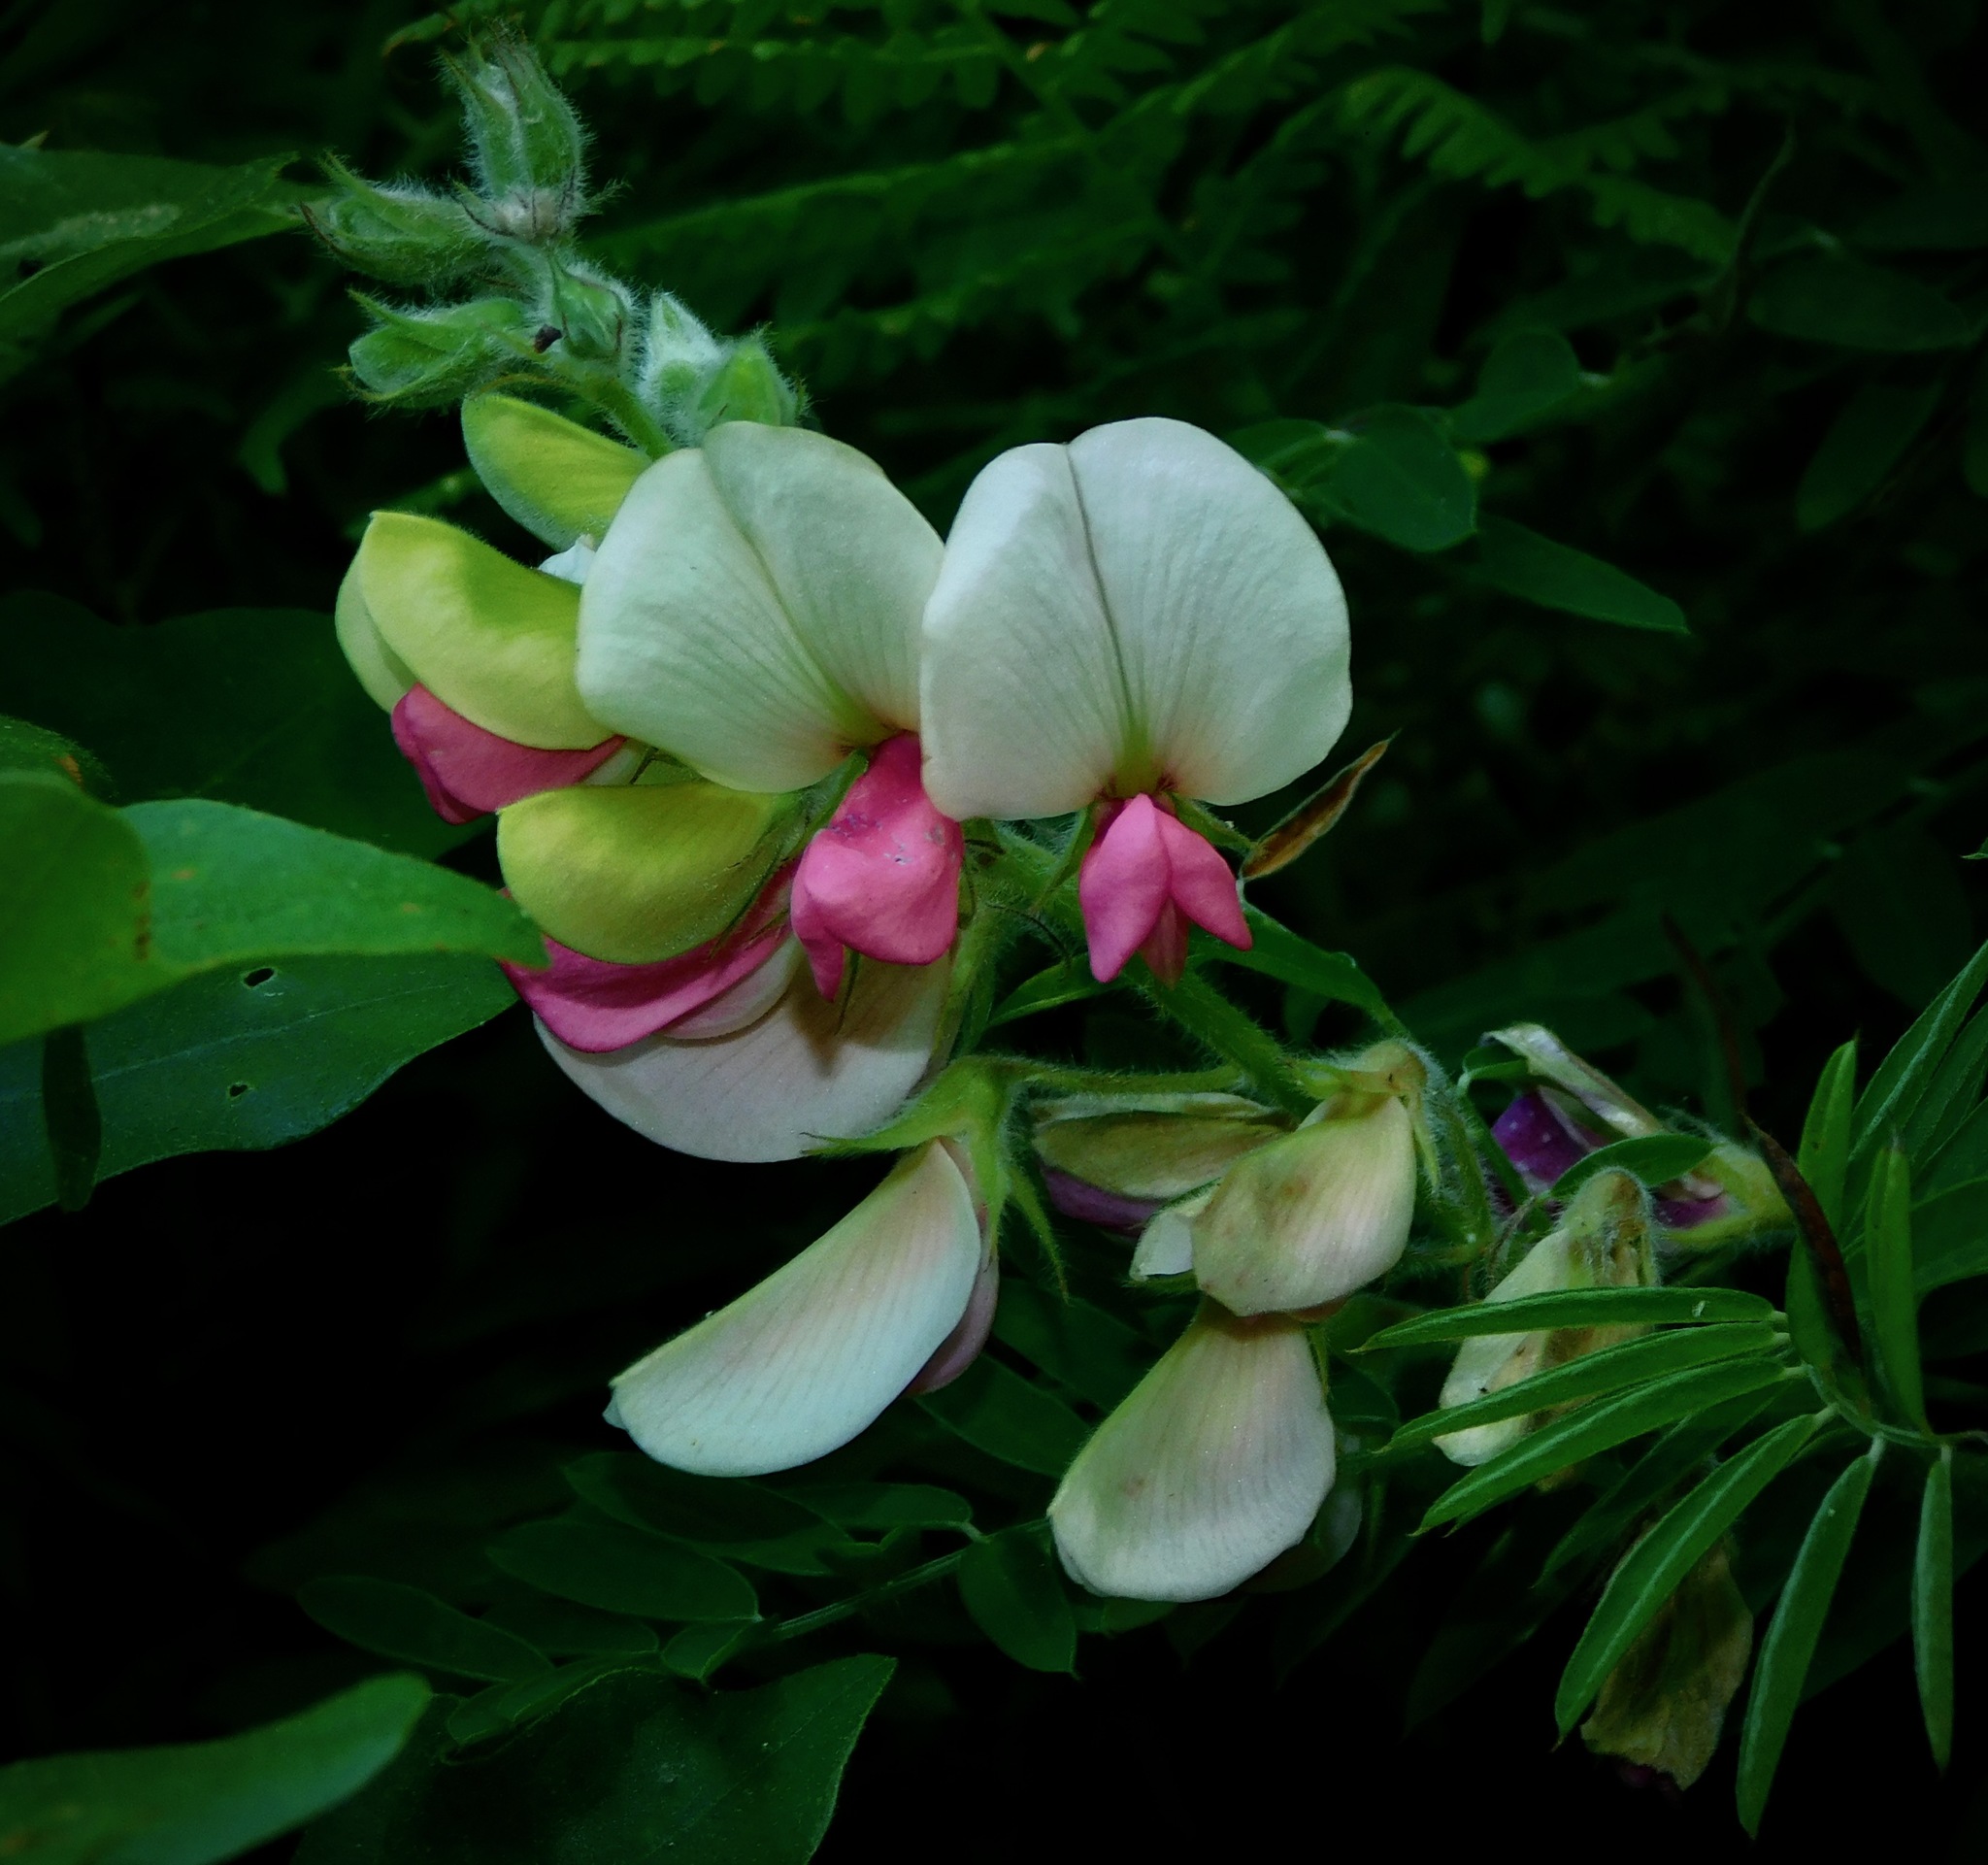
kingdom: Plantae
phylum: Tracheophyta
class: Magnoliopsida
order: Fabales
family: Fabaceae
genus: Tephrosia
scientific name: Tephrosia virginiana
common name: Rabbit-pea
